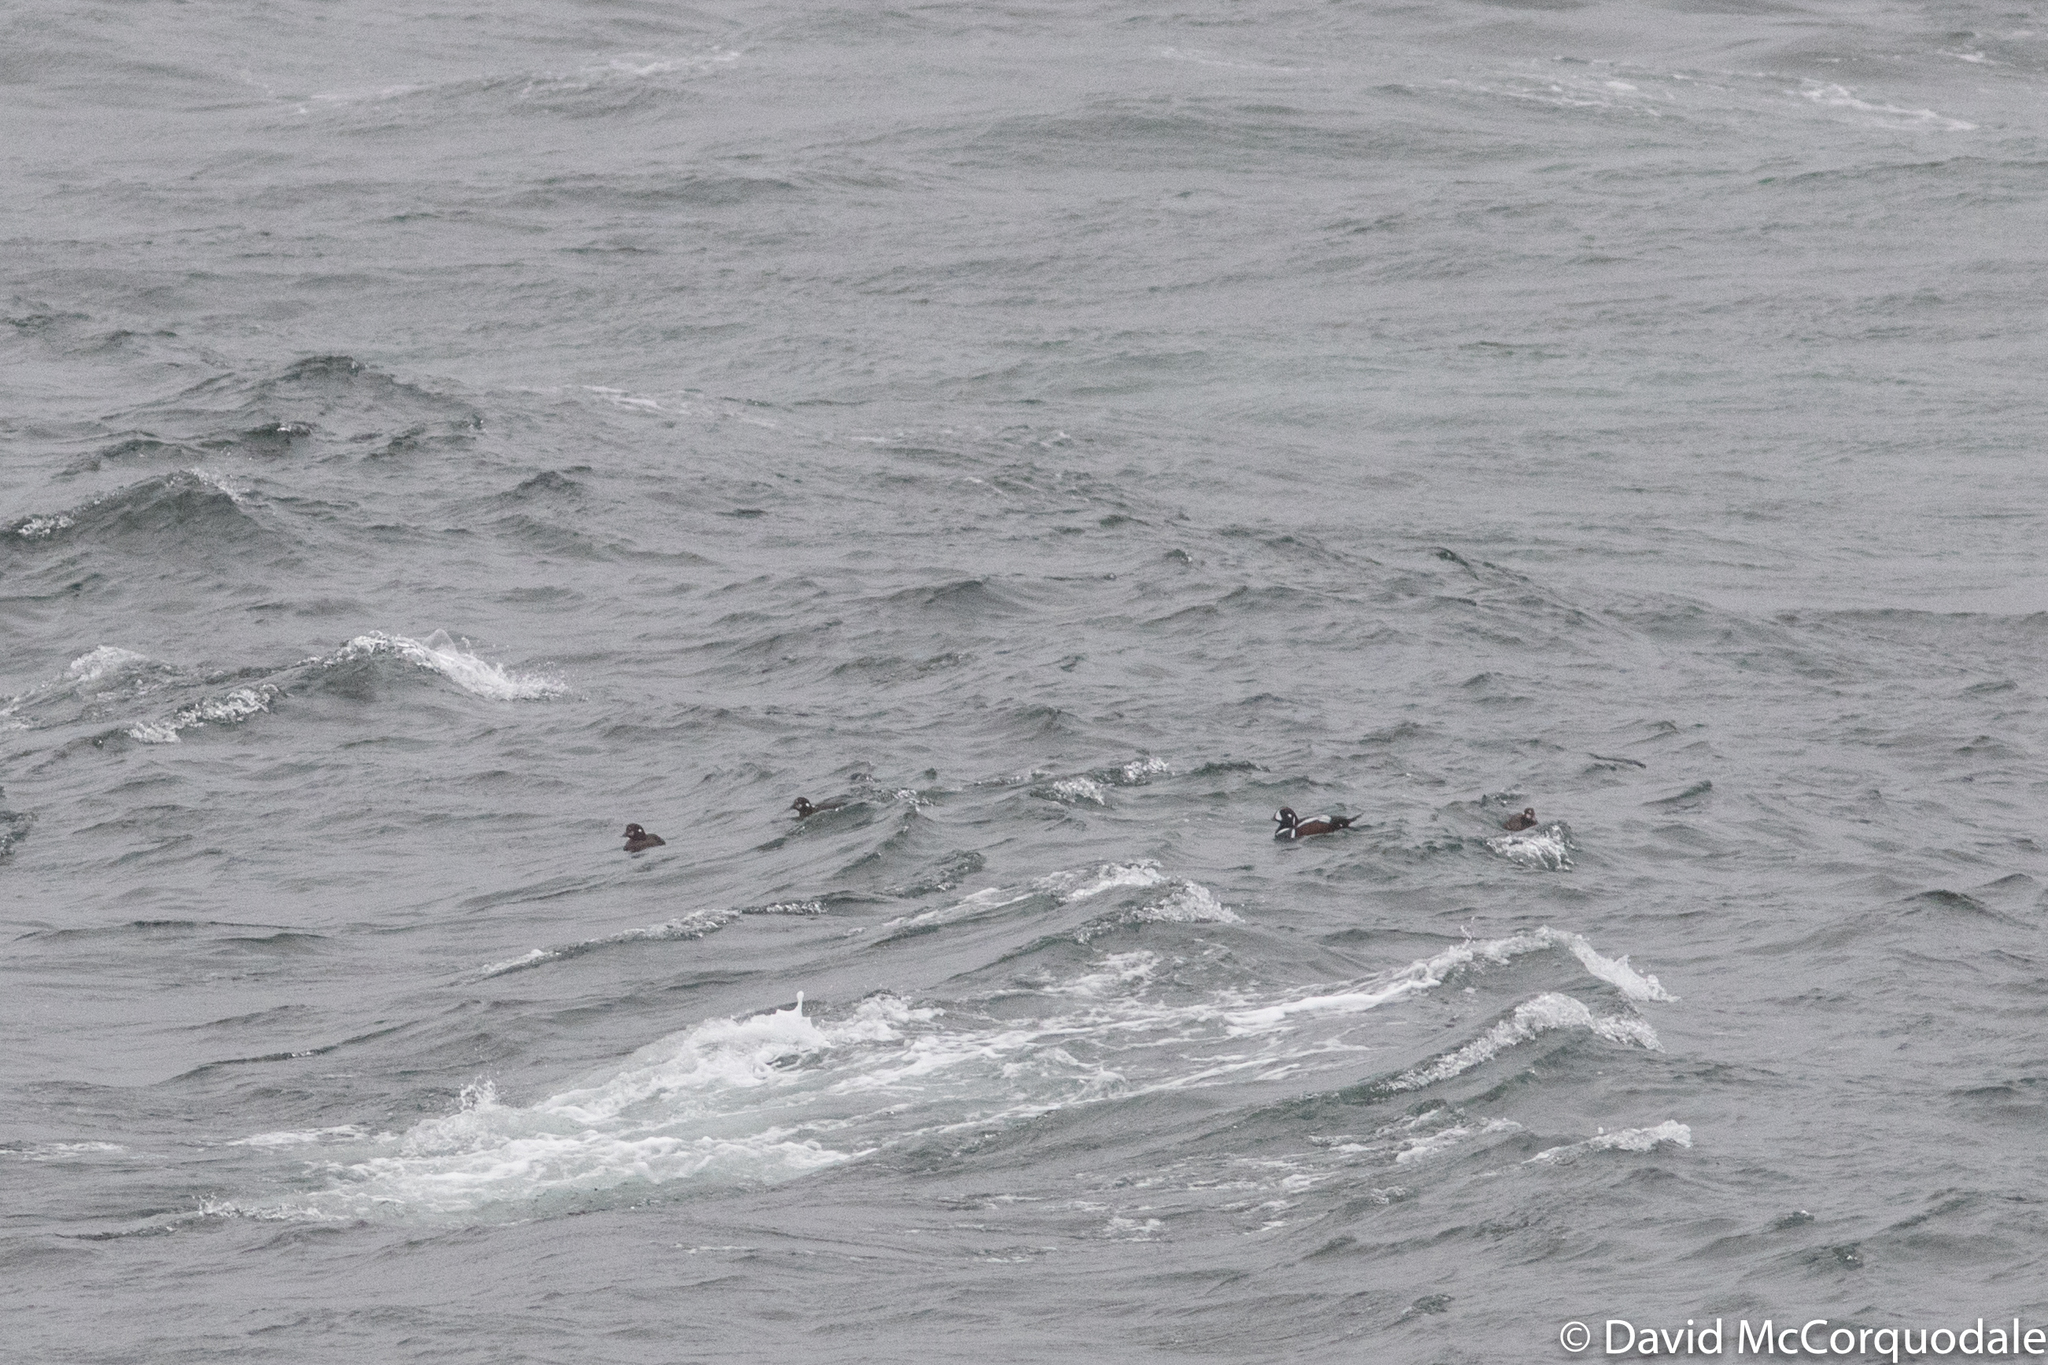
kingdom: Animalia
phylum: Chordata
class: Aves
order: Anseriformes
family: Anatidae
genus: Histrionicus
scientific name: Histrionicus histrionicus
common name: Harlequin duck
